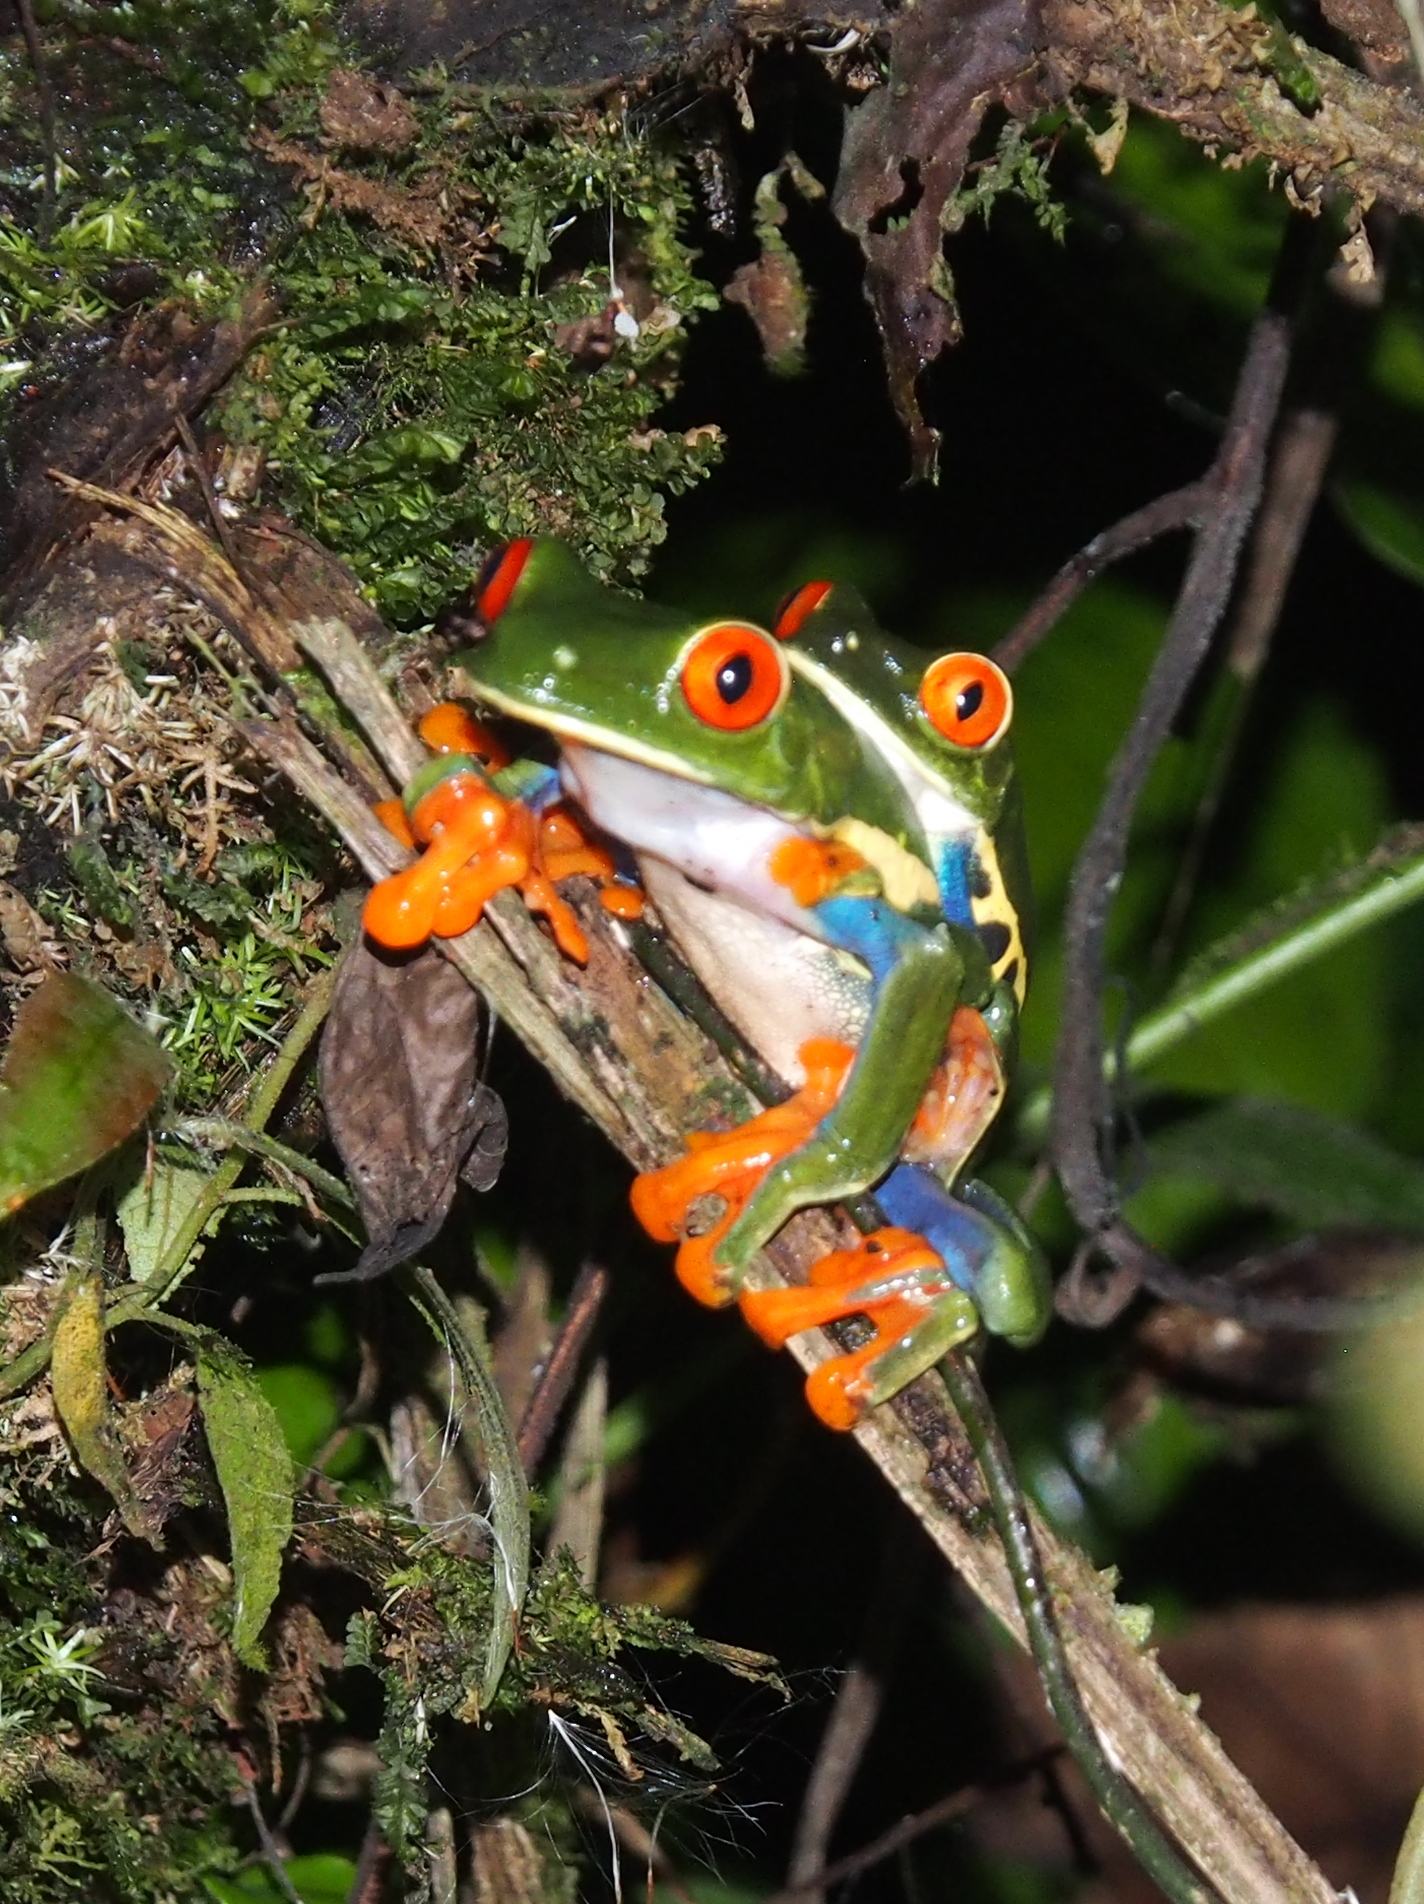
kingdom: Animalia
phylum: Chordata
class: Amphibia
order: Anura
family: Phyllomedusidae
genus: Agalychnis
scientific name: Agalychnis callidryas
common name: Red-eyed treefrog
